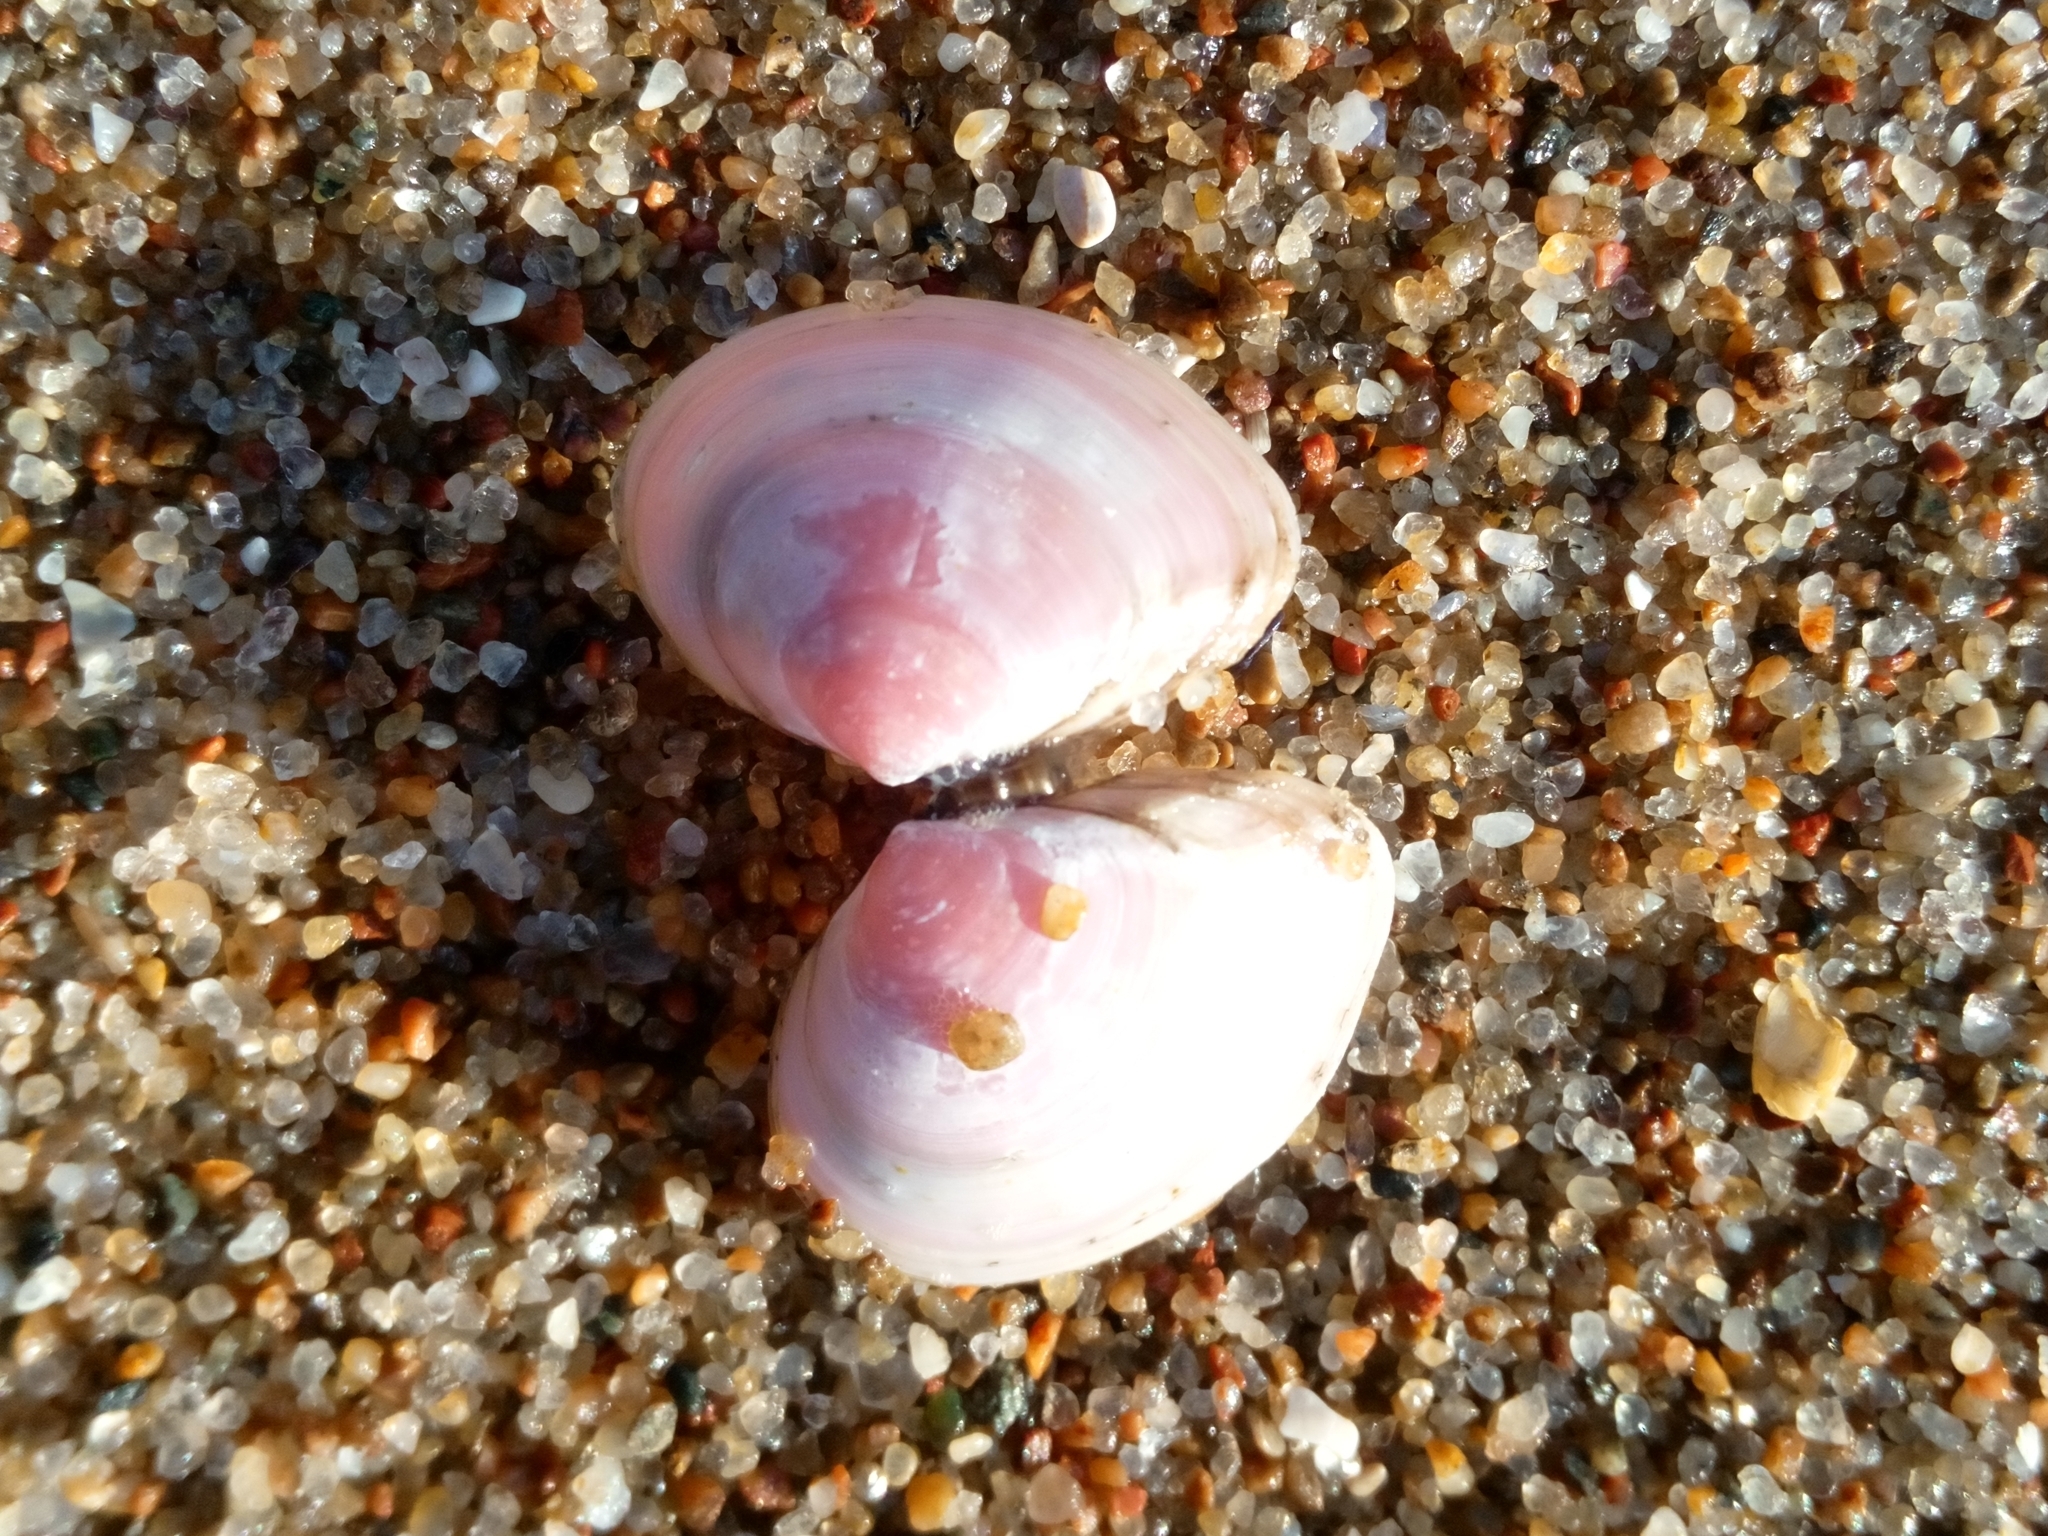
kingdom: Animalia
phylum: Mollusca
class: Bivalvia
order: Cardiida
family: Tellinidae
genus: Macoma
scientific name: Macoma balthica
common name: Baltic tellin
